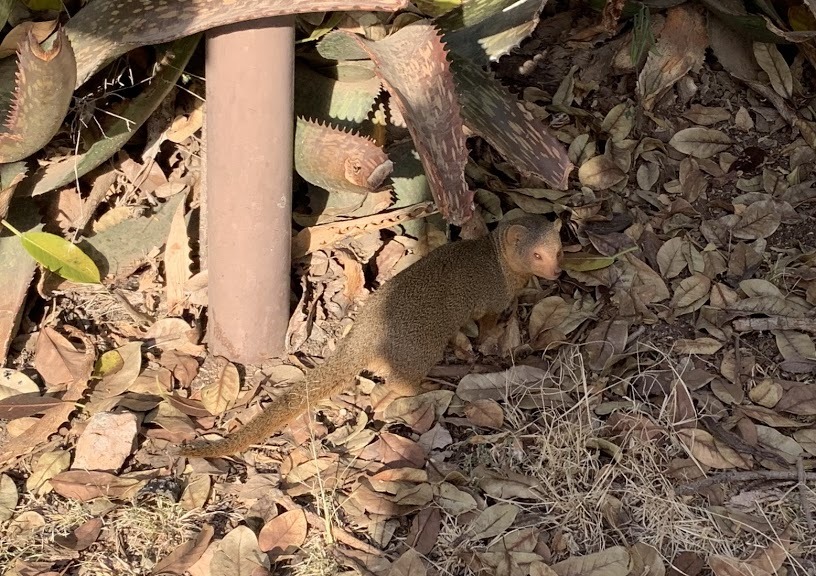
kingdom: Animalia
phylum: Chordata
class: Mammalia
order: Carnivora
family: Herpestidae
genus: Helogale
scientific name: Helogale parvula
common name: Common dwarf mongoose
